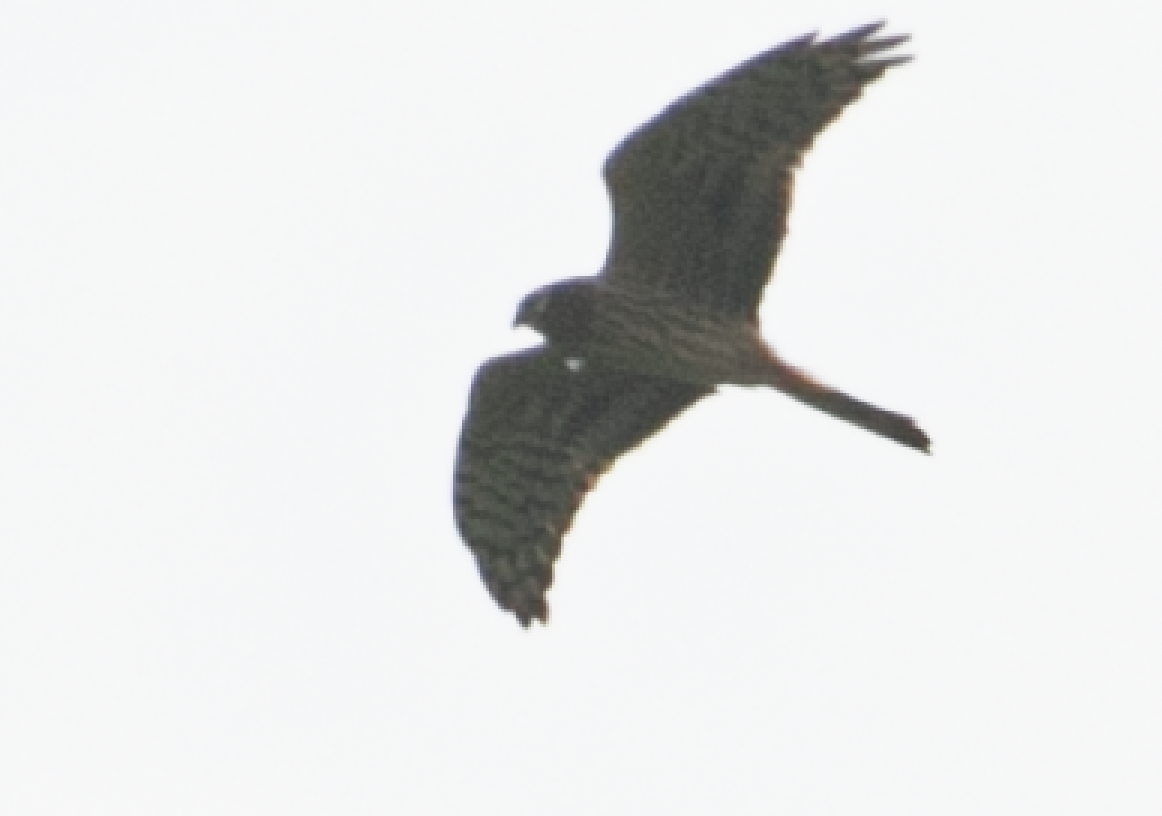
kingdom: Animalia
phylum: Chordata
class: Aves
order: Accipitriformes
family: Accipitridae
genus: Circus
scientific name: Circus pygargus
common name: Montagu's harrier
